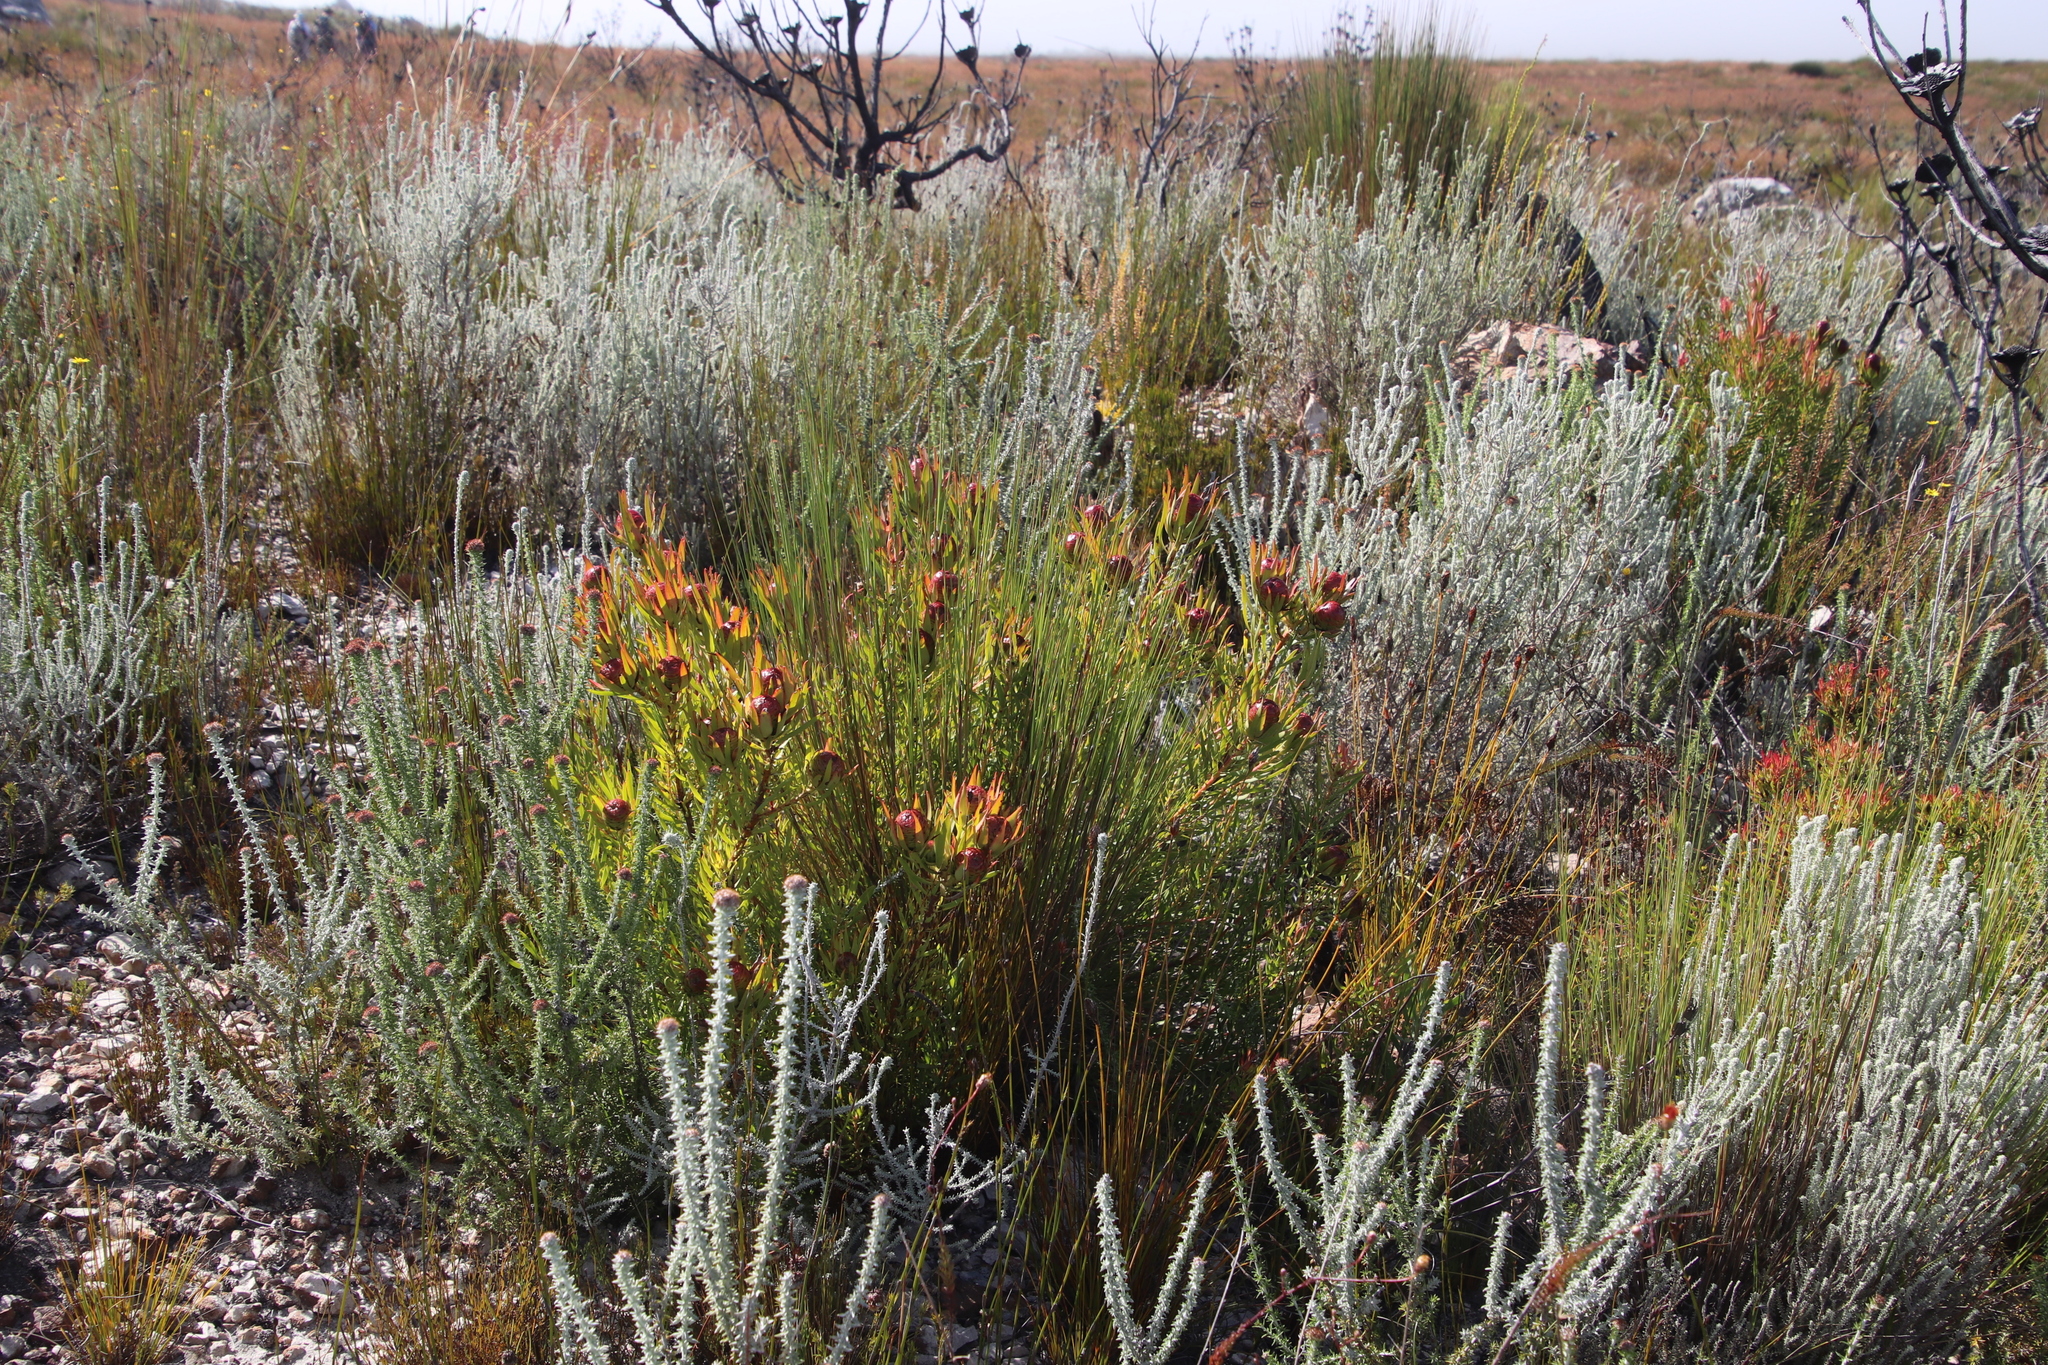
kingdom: Plantae
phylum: Tracheophyta
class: Magnoliopsida
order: Proteales
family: Proteaceae
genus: Leucadendron
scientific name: Leucadendron spissifolium
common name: Spear-leaf conebush
